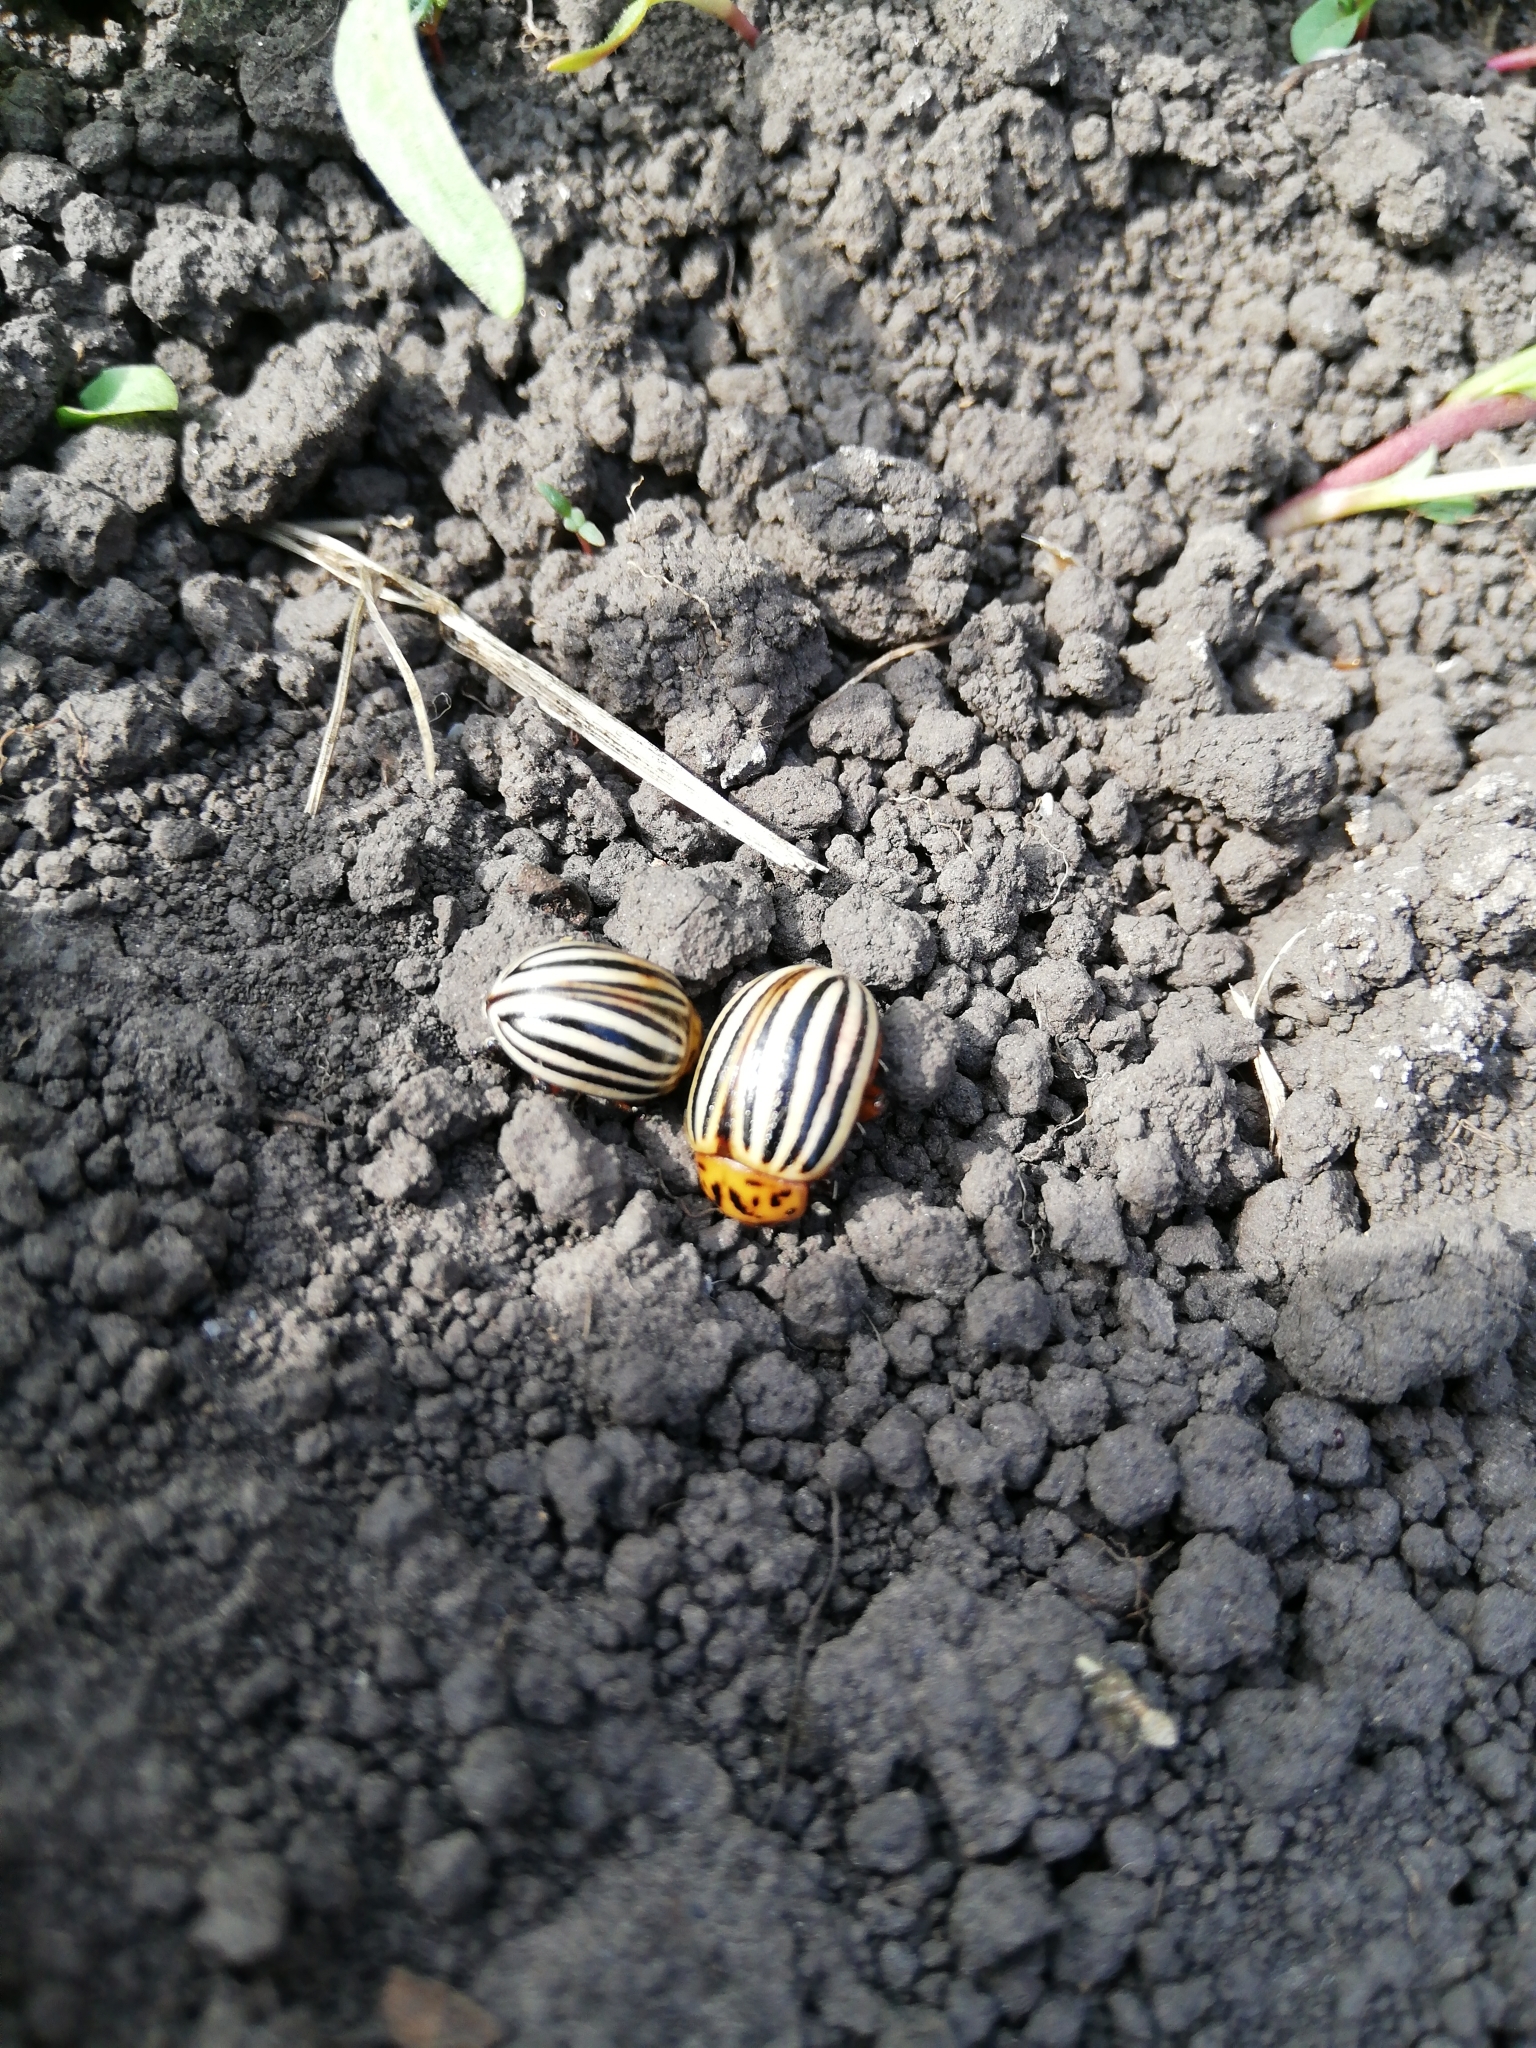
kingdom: Animalia
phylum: Arthropoda
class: Insecta
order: Coleoptera
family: Chrysomelidae
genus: Leptinotarsa
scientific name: Leptinotarsa decemlineata
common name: Colorado potato beetle
